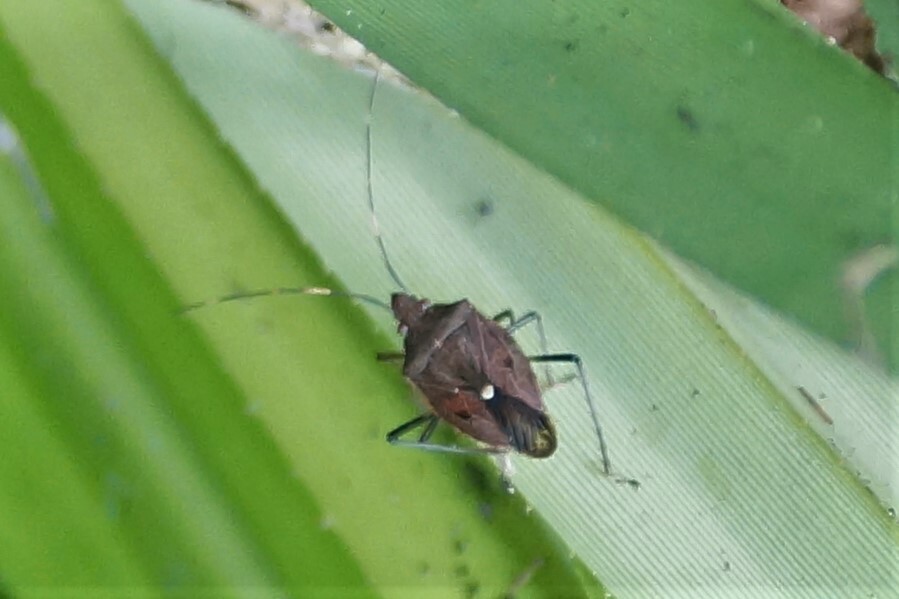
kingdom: Animalia
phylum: Arthropoda
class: Insecta
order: Hemiptera
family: Pentatomidae
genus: Poecilometis
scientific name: Poecilometis
